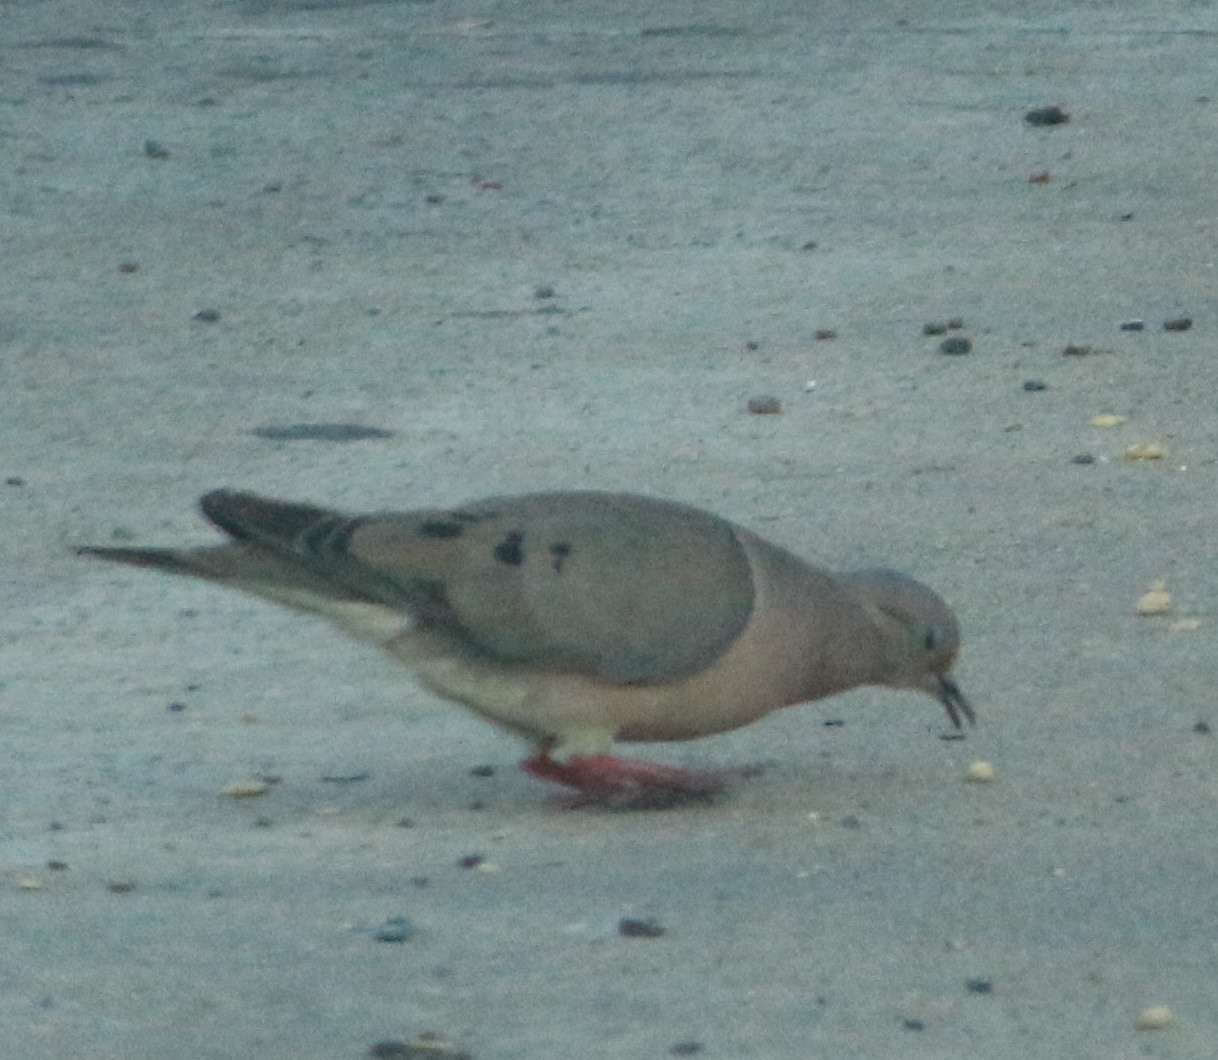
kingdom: Animalia
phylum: Chordata
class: Aves
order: Columbiformes
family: Columbidae
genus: Zenaida
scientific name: Zenaida auriculata
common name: Eared dove
